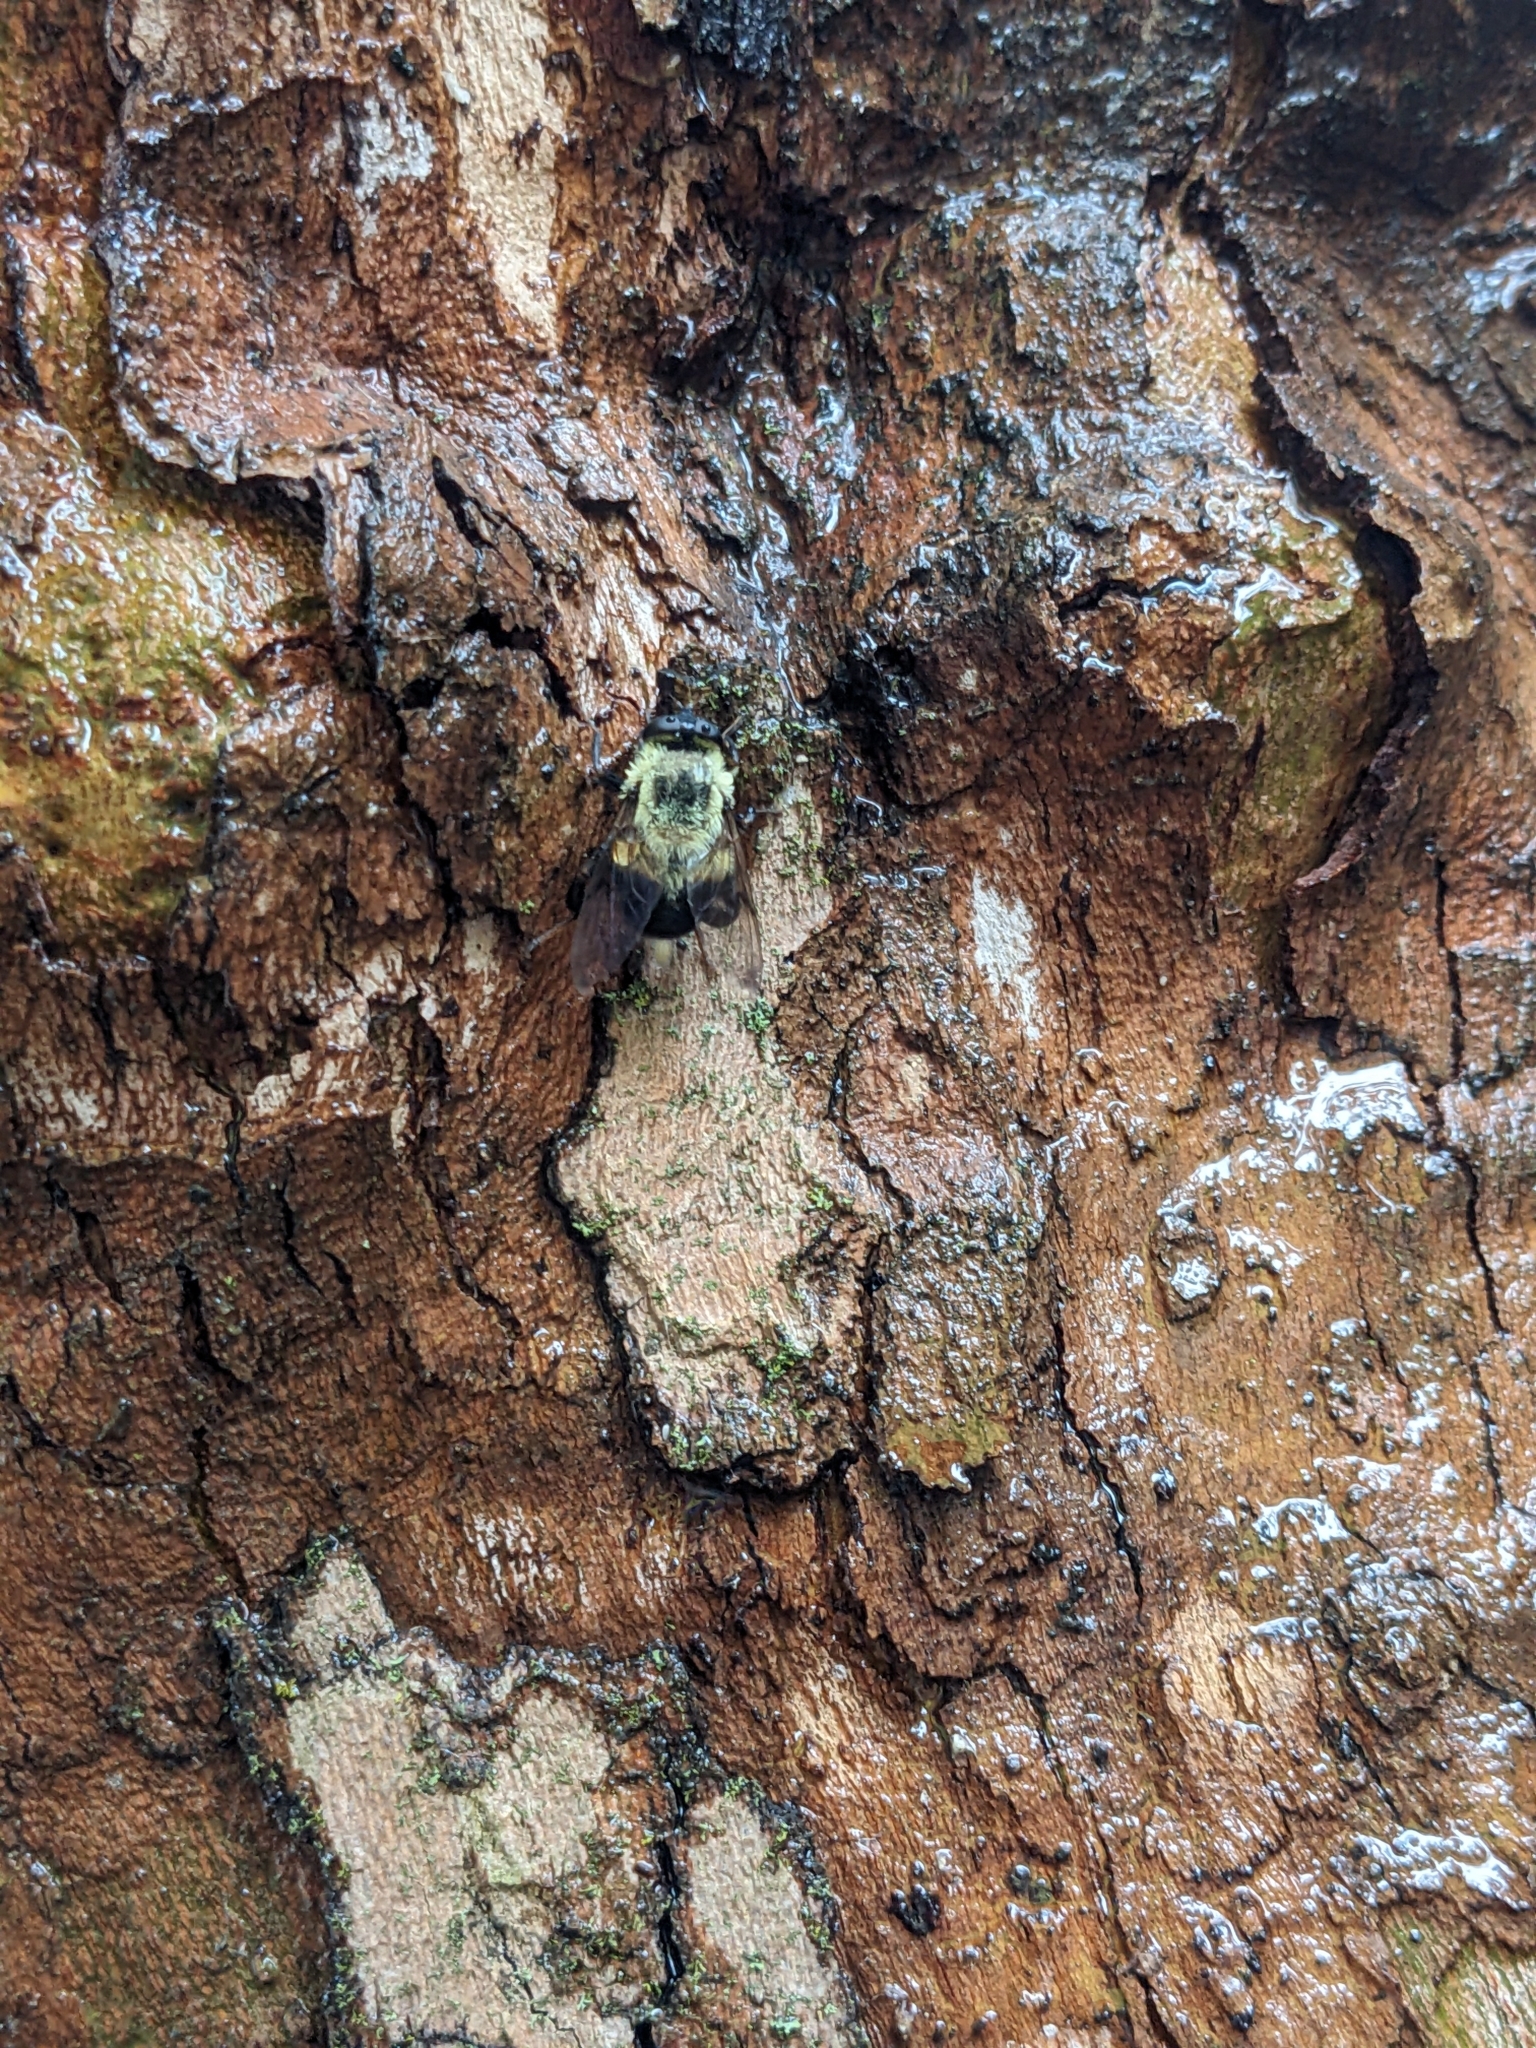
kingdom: Animalia
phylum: Arthropoda
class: Insecta
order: Diptera
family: Syrphidae
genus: Imatisma
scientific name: Imatisma posticata
